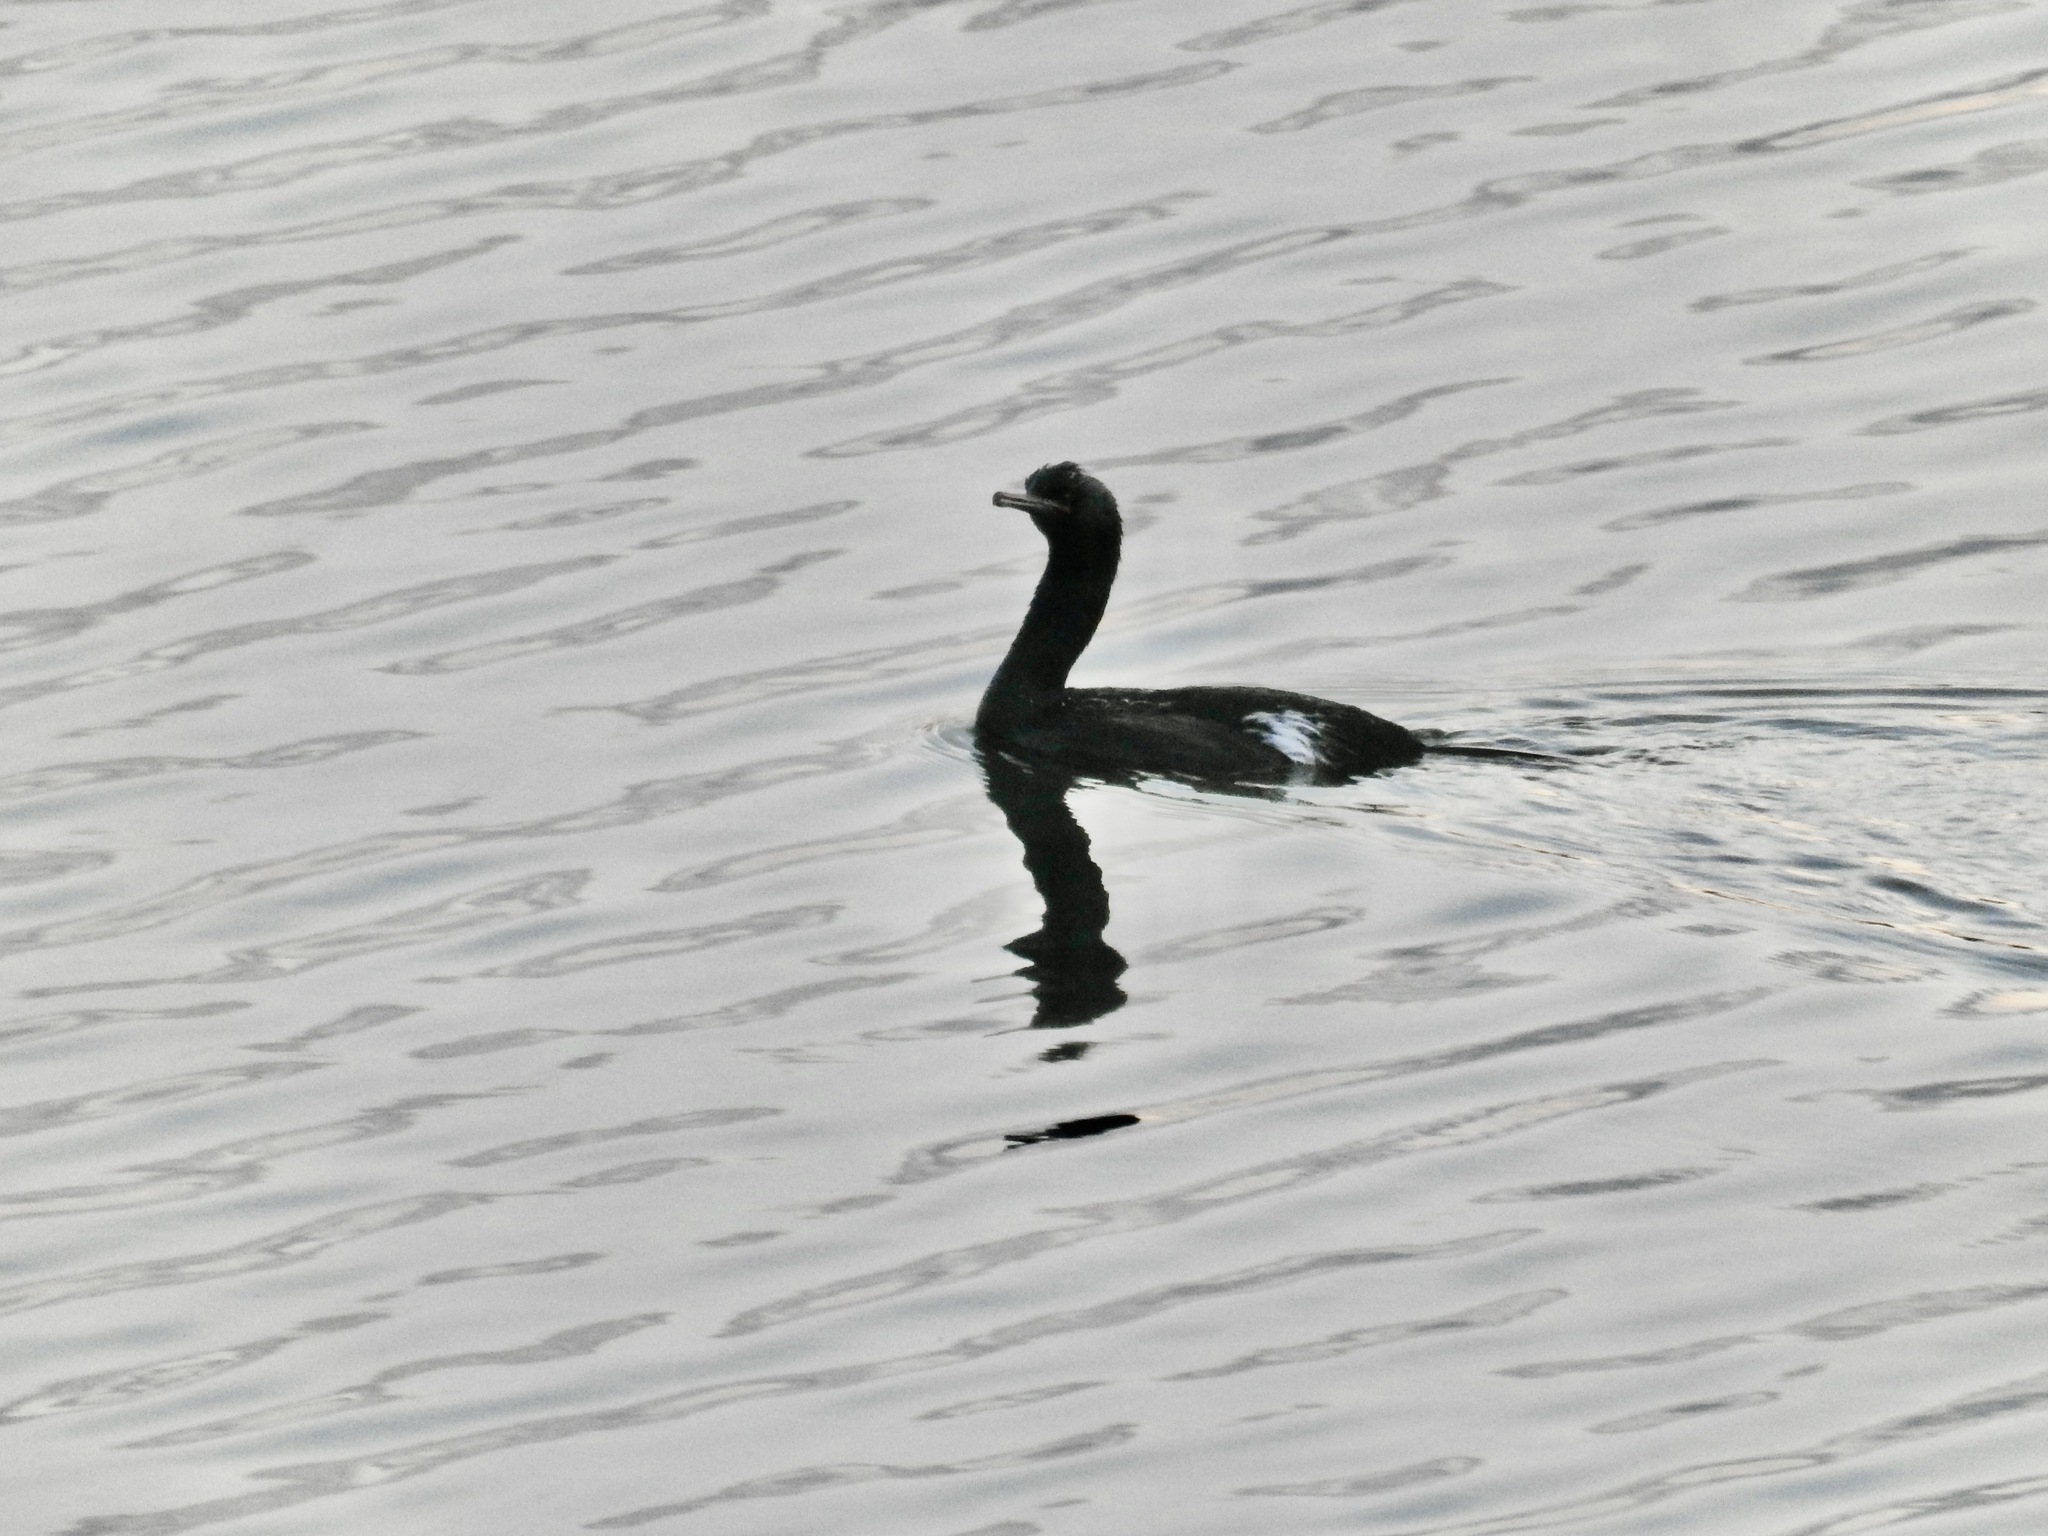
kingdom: Animalia
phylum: Chordata
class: Aves
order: Suliformes
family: Phalacrocoracidae
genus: Phalacrocorax
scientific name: Phalacrocorax pelagicus
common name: Pelagic cormorant
